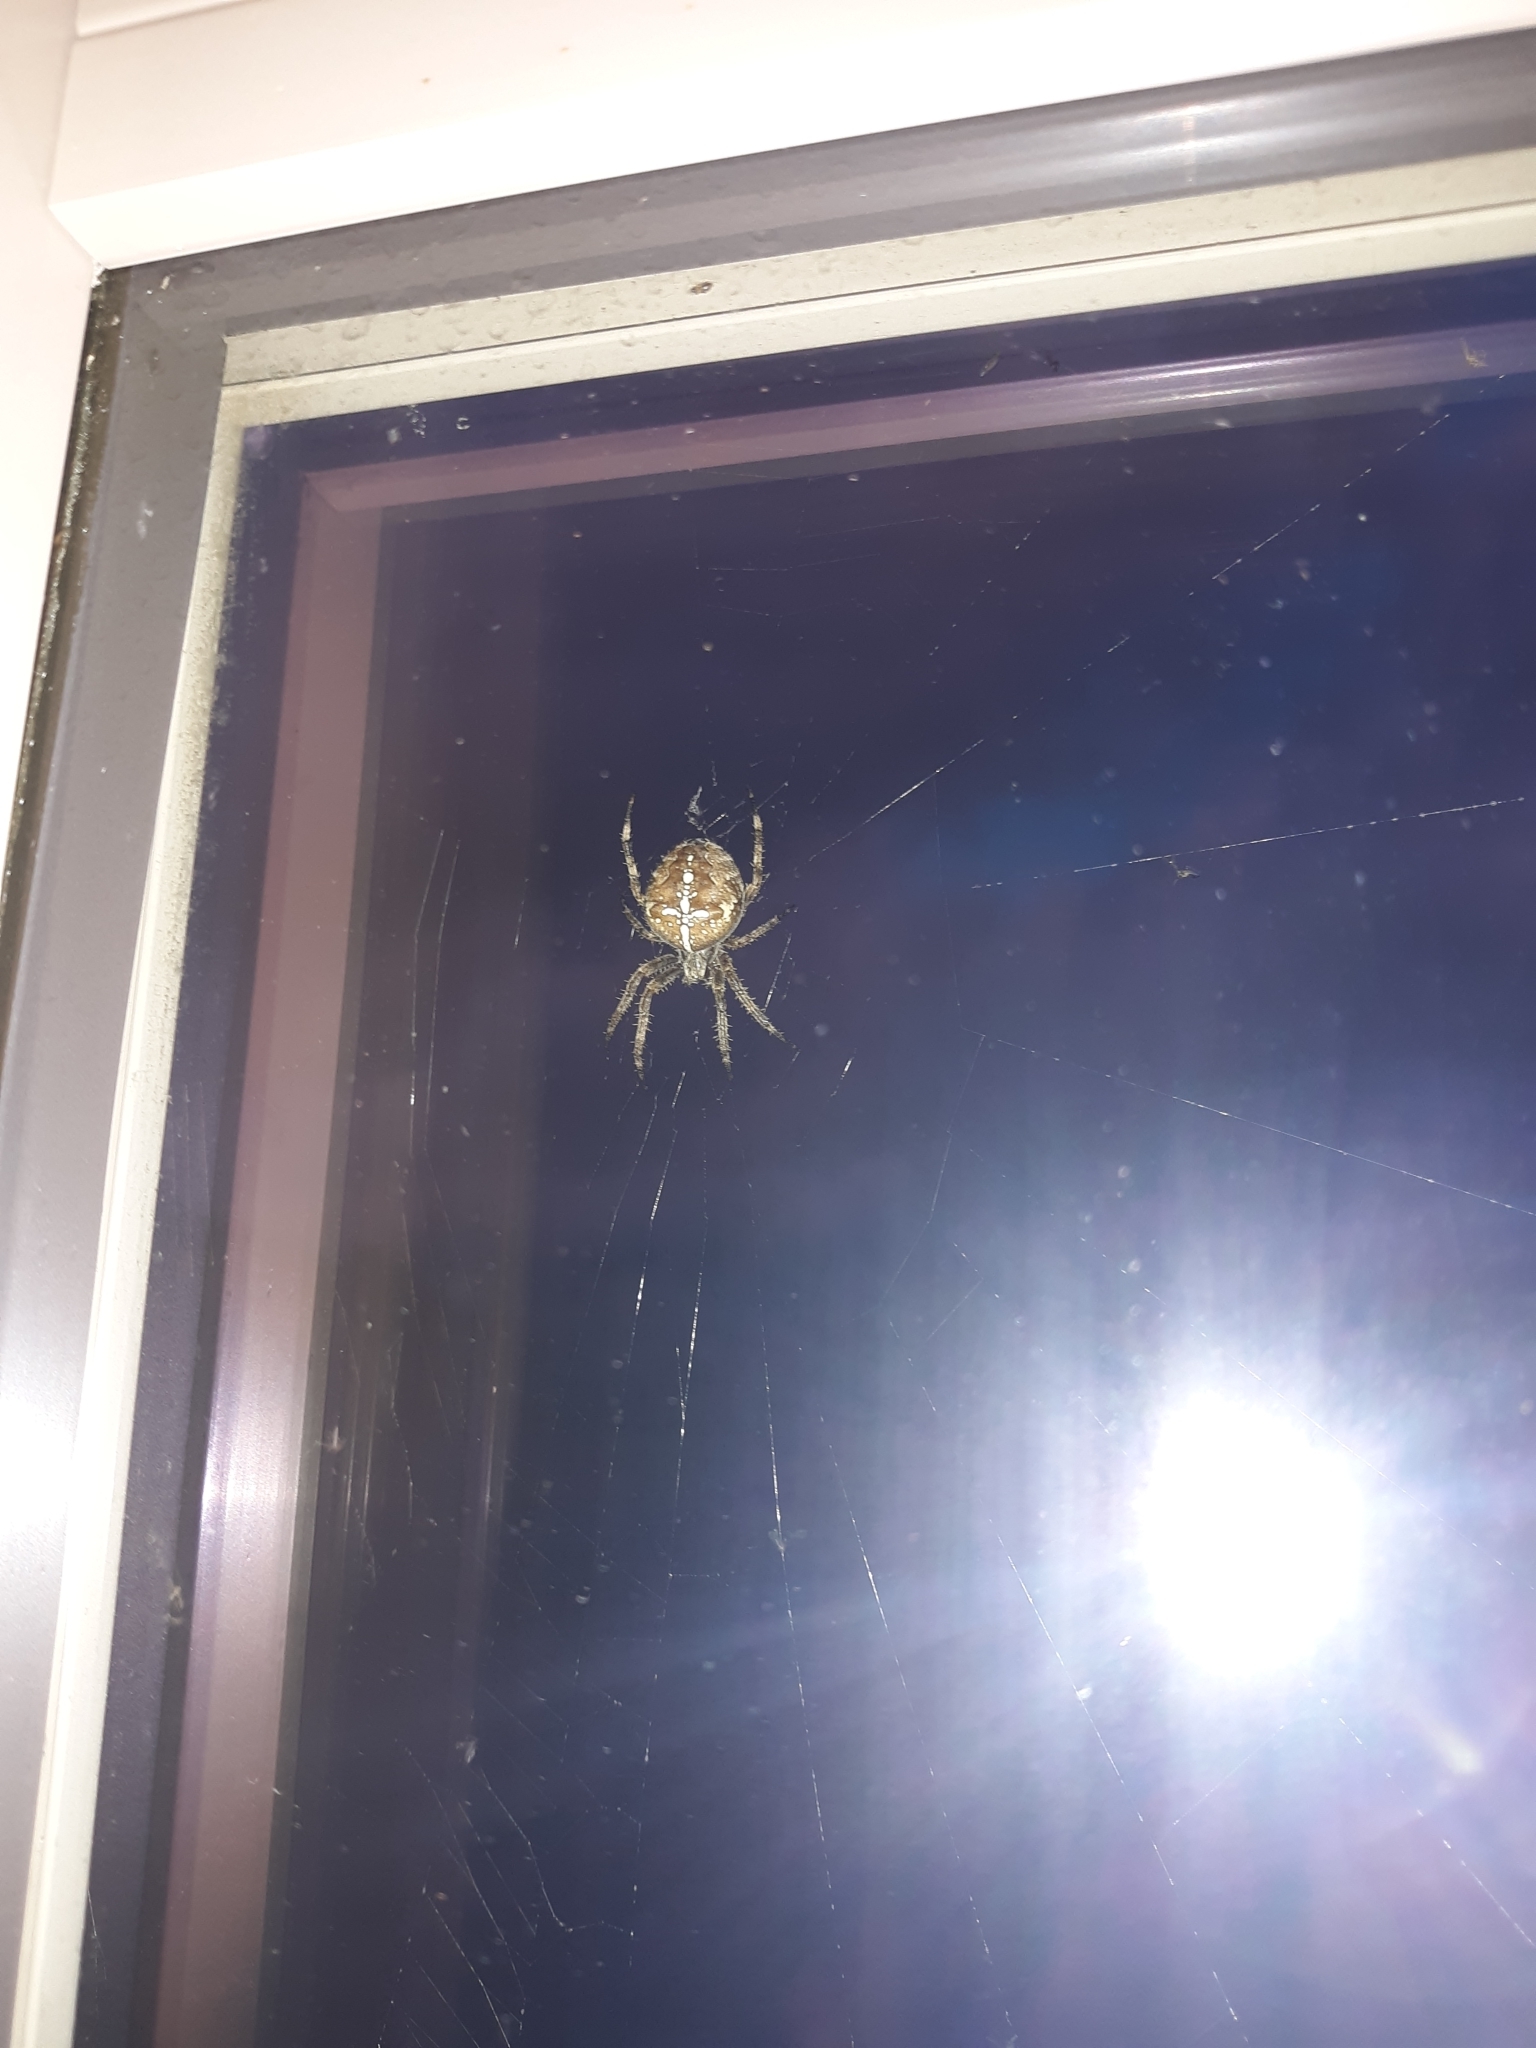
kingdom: Animalia
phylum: Arthropoda
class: Arachnida
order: Araneae
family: Araneidae
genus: Araneus
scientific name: Araneus diadematus
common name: Cross orbweaver
